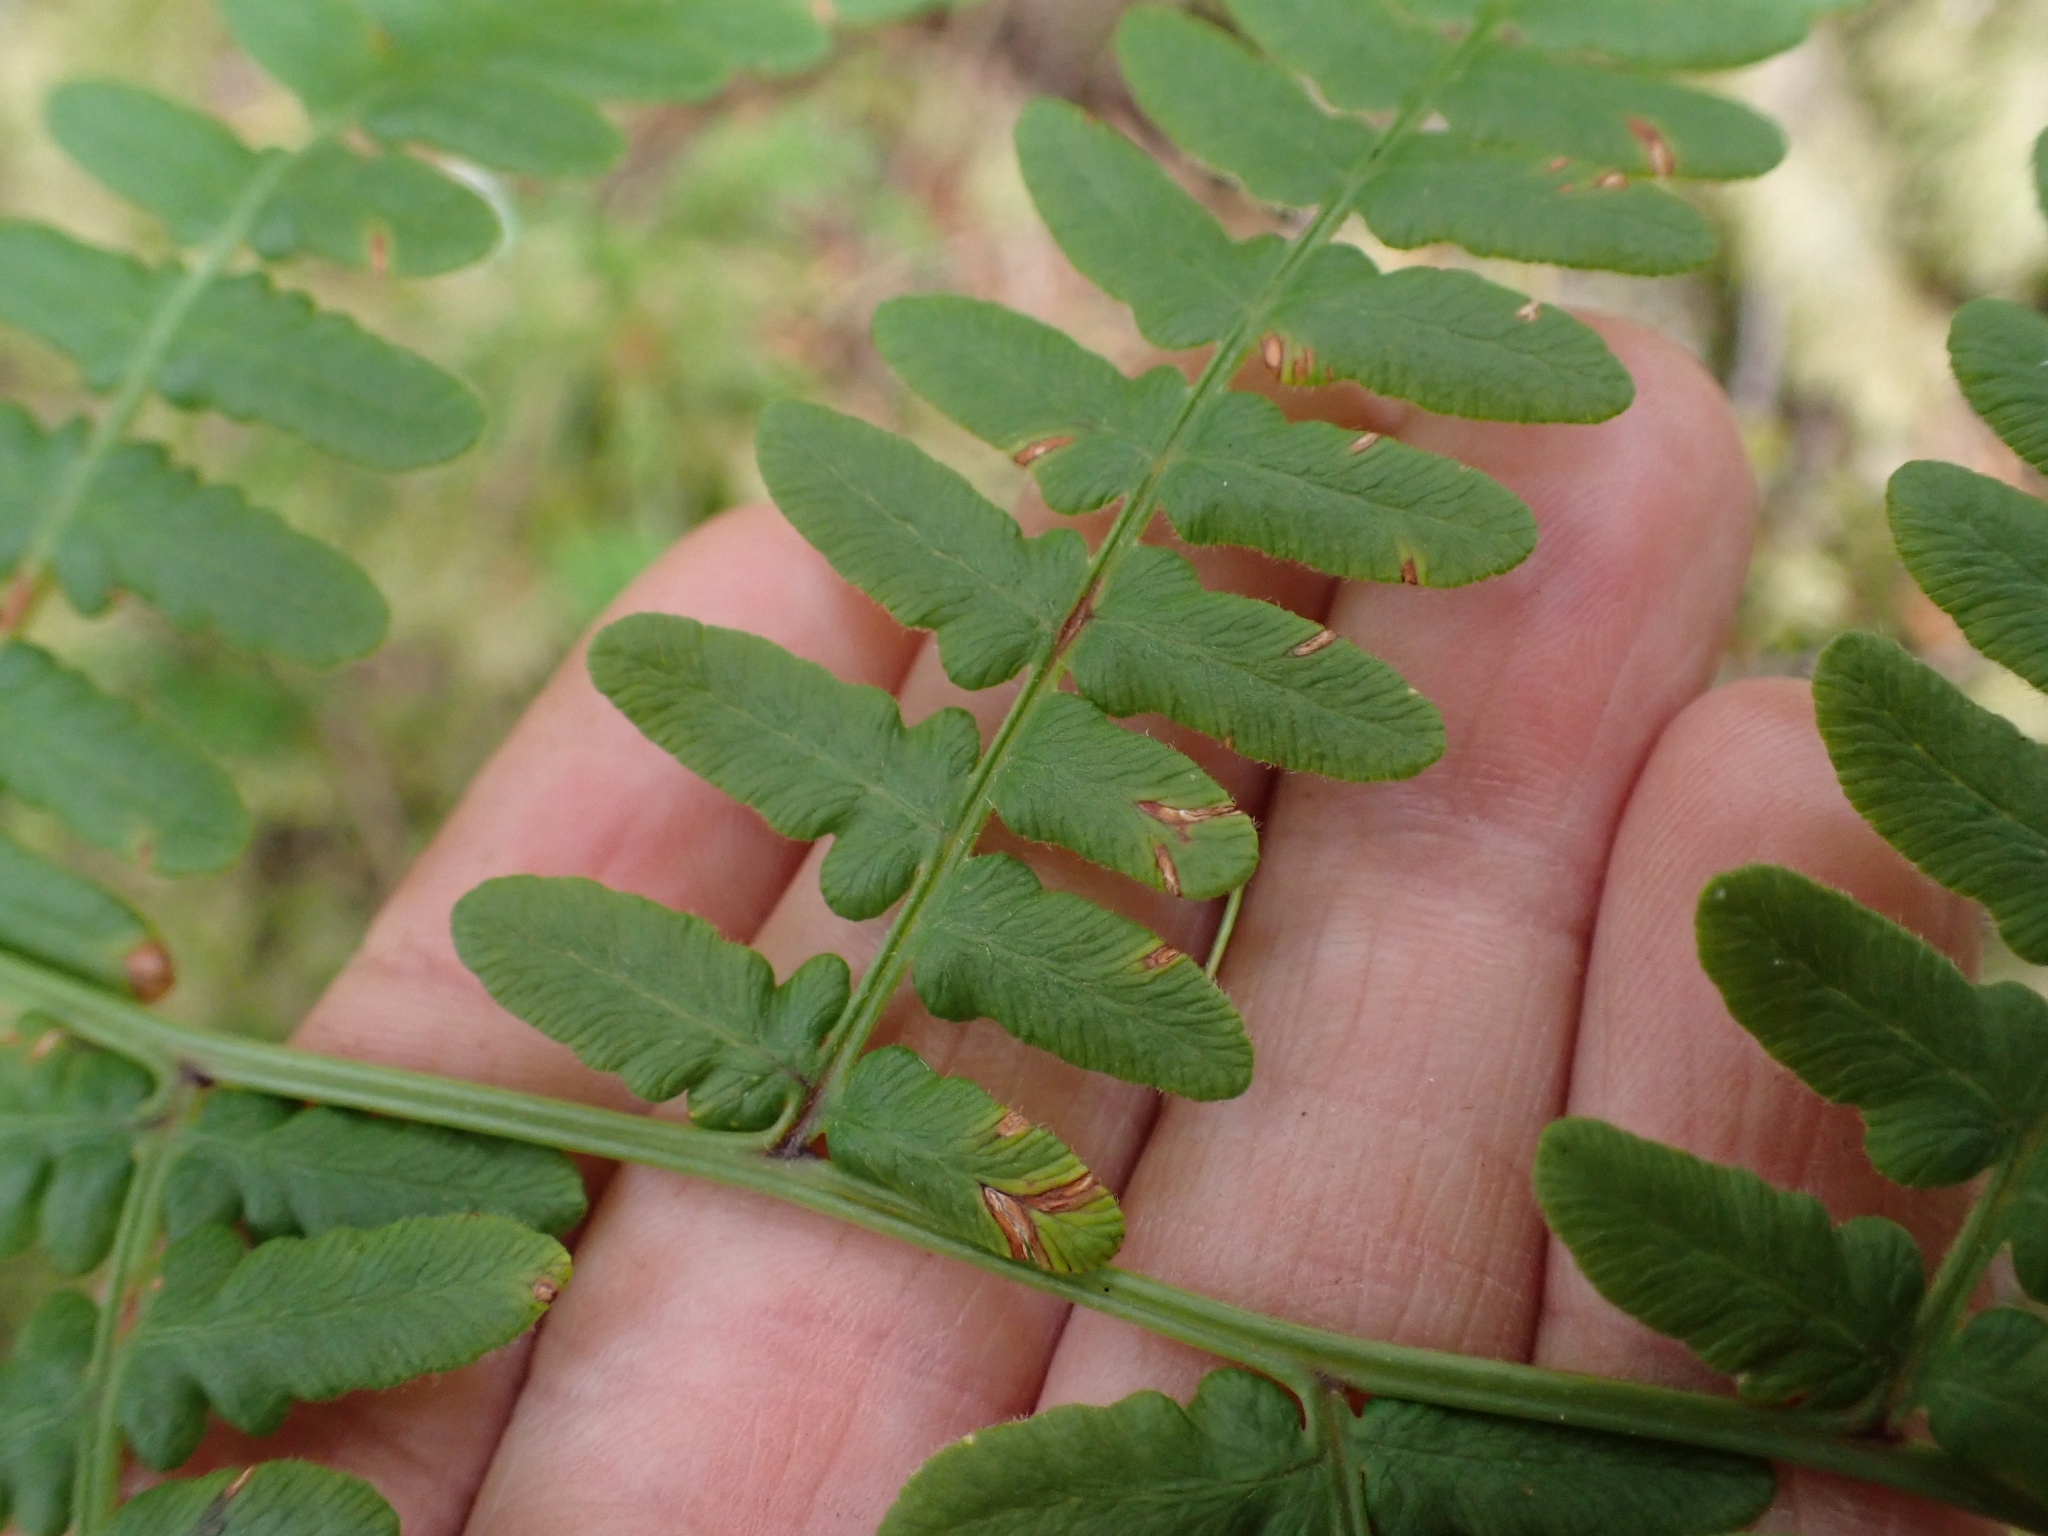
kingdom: Plantae
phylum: Tracheophyta
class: Polypodiopsida
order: Polypodiales
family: Dennstaedtiaceae
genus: Pteridium
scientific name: Pteridium aquilinum
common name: Bracken
